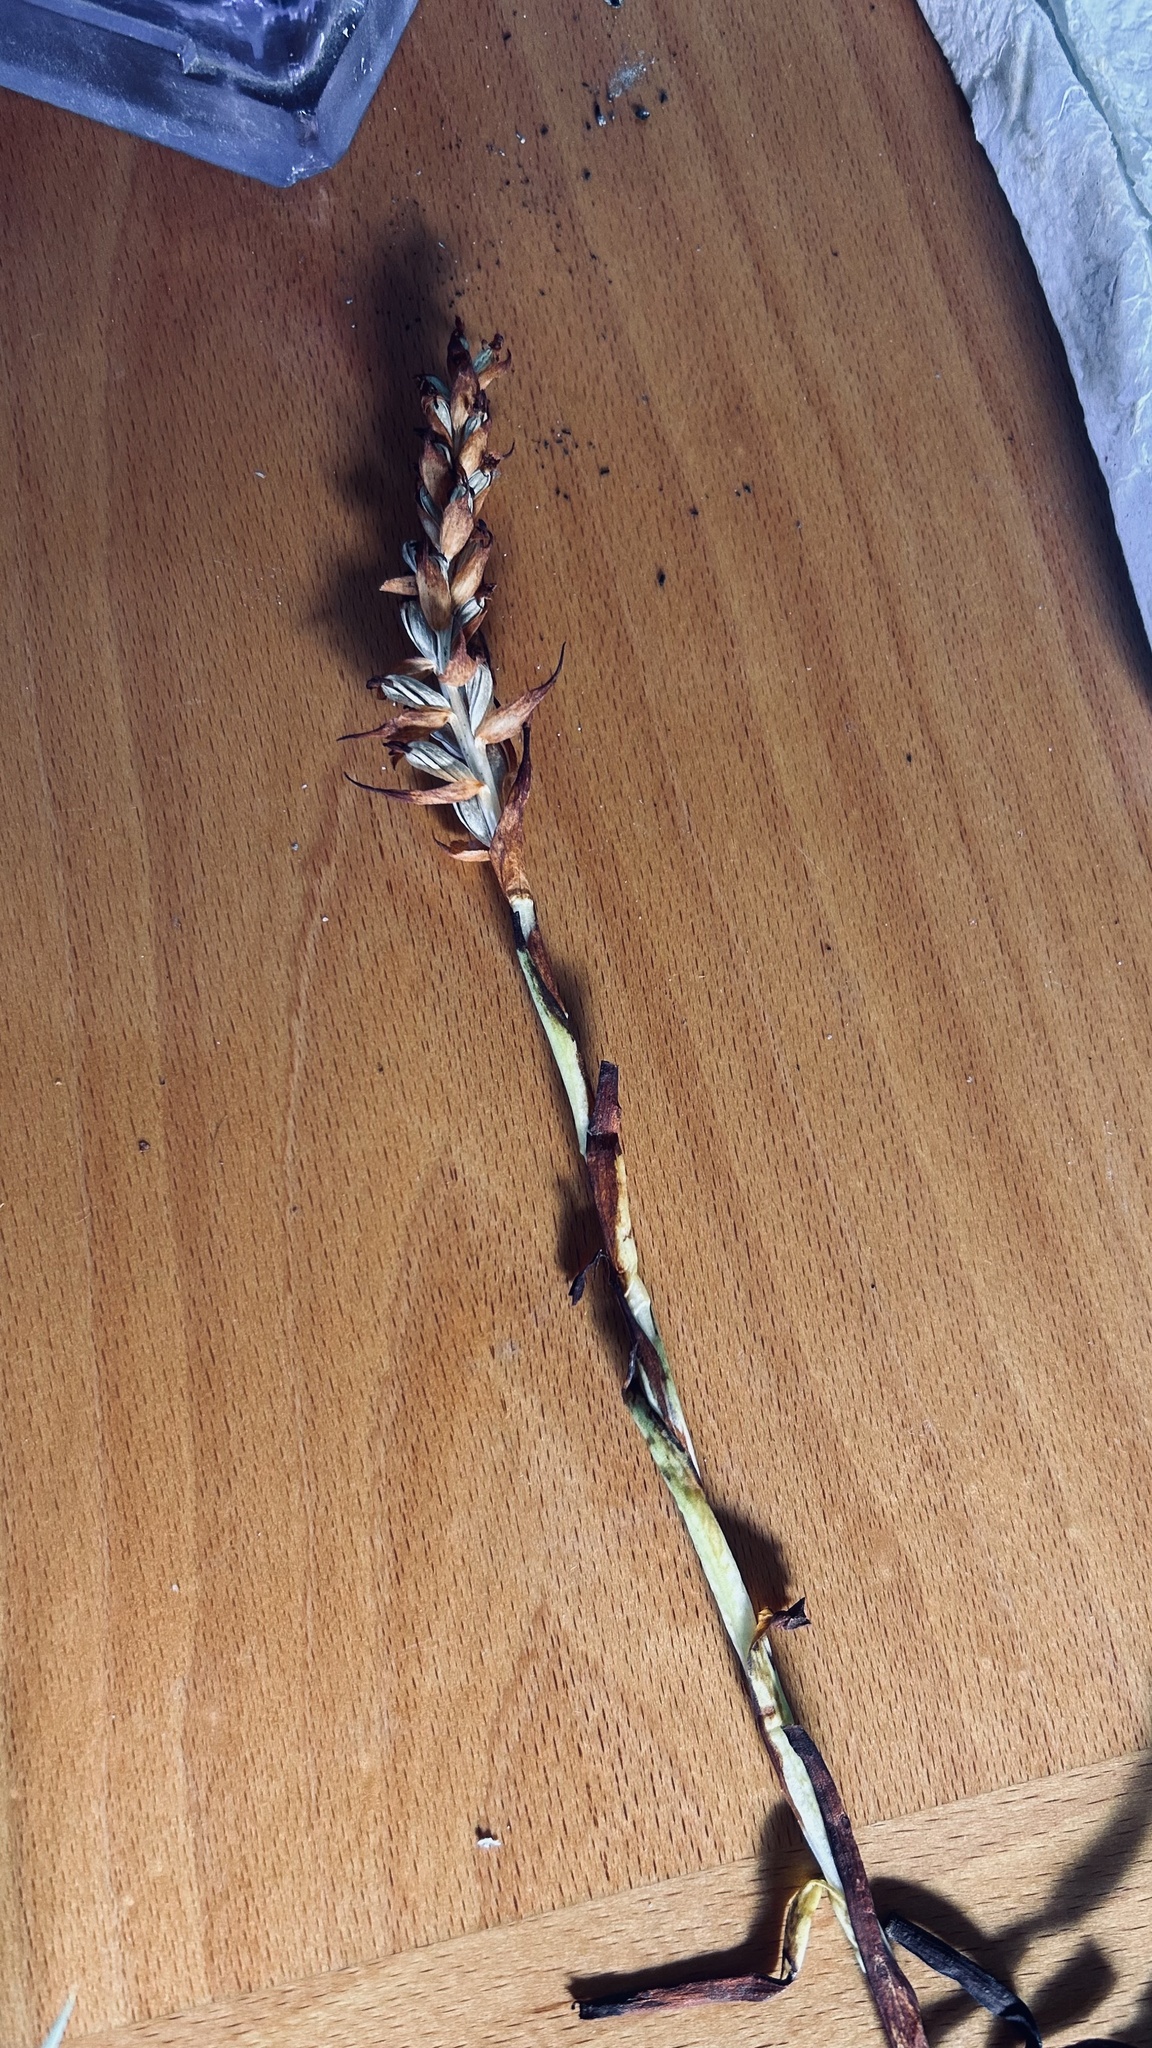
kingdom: Plantae
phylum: Tracheophyta
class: Liliopsida
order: Asparagales
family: Orchidaceae
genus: Disa
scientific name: Disa bracteata
